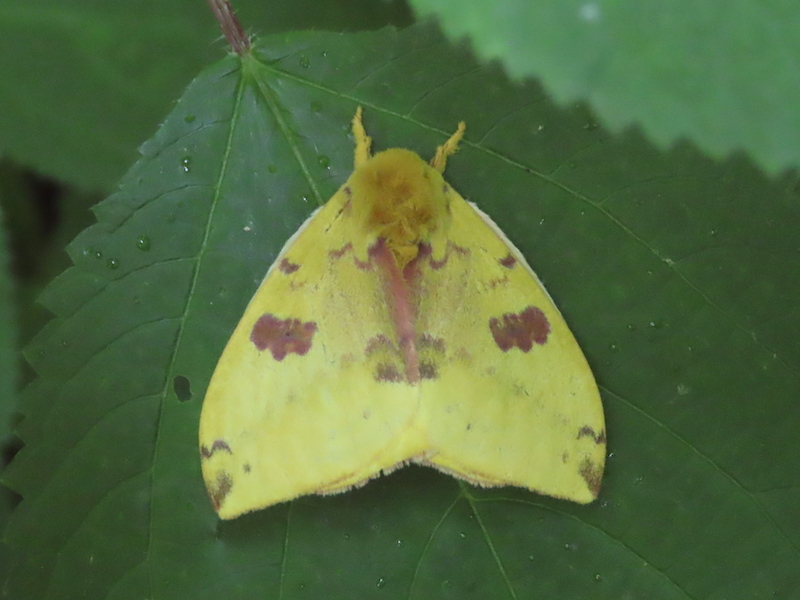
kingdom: Animalia
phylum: Arthropoda
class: Insecta
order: Lepidoptera
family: Saturniidae
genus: Automeris
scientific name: Automeris io
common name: Io moth
